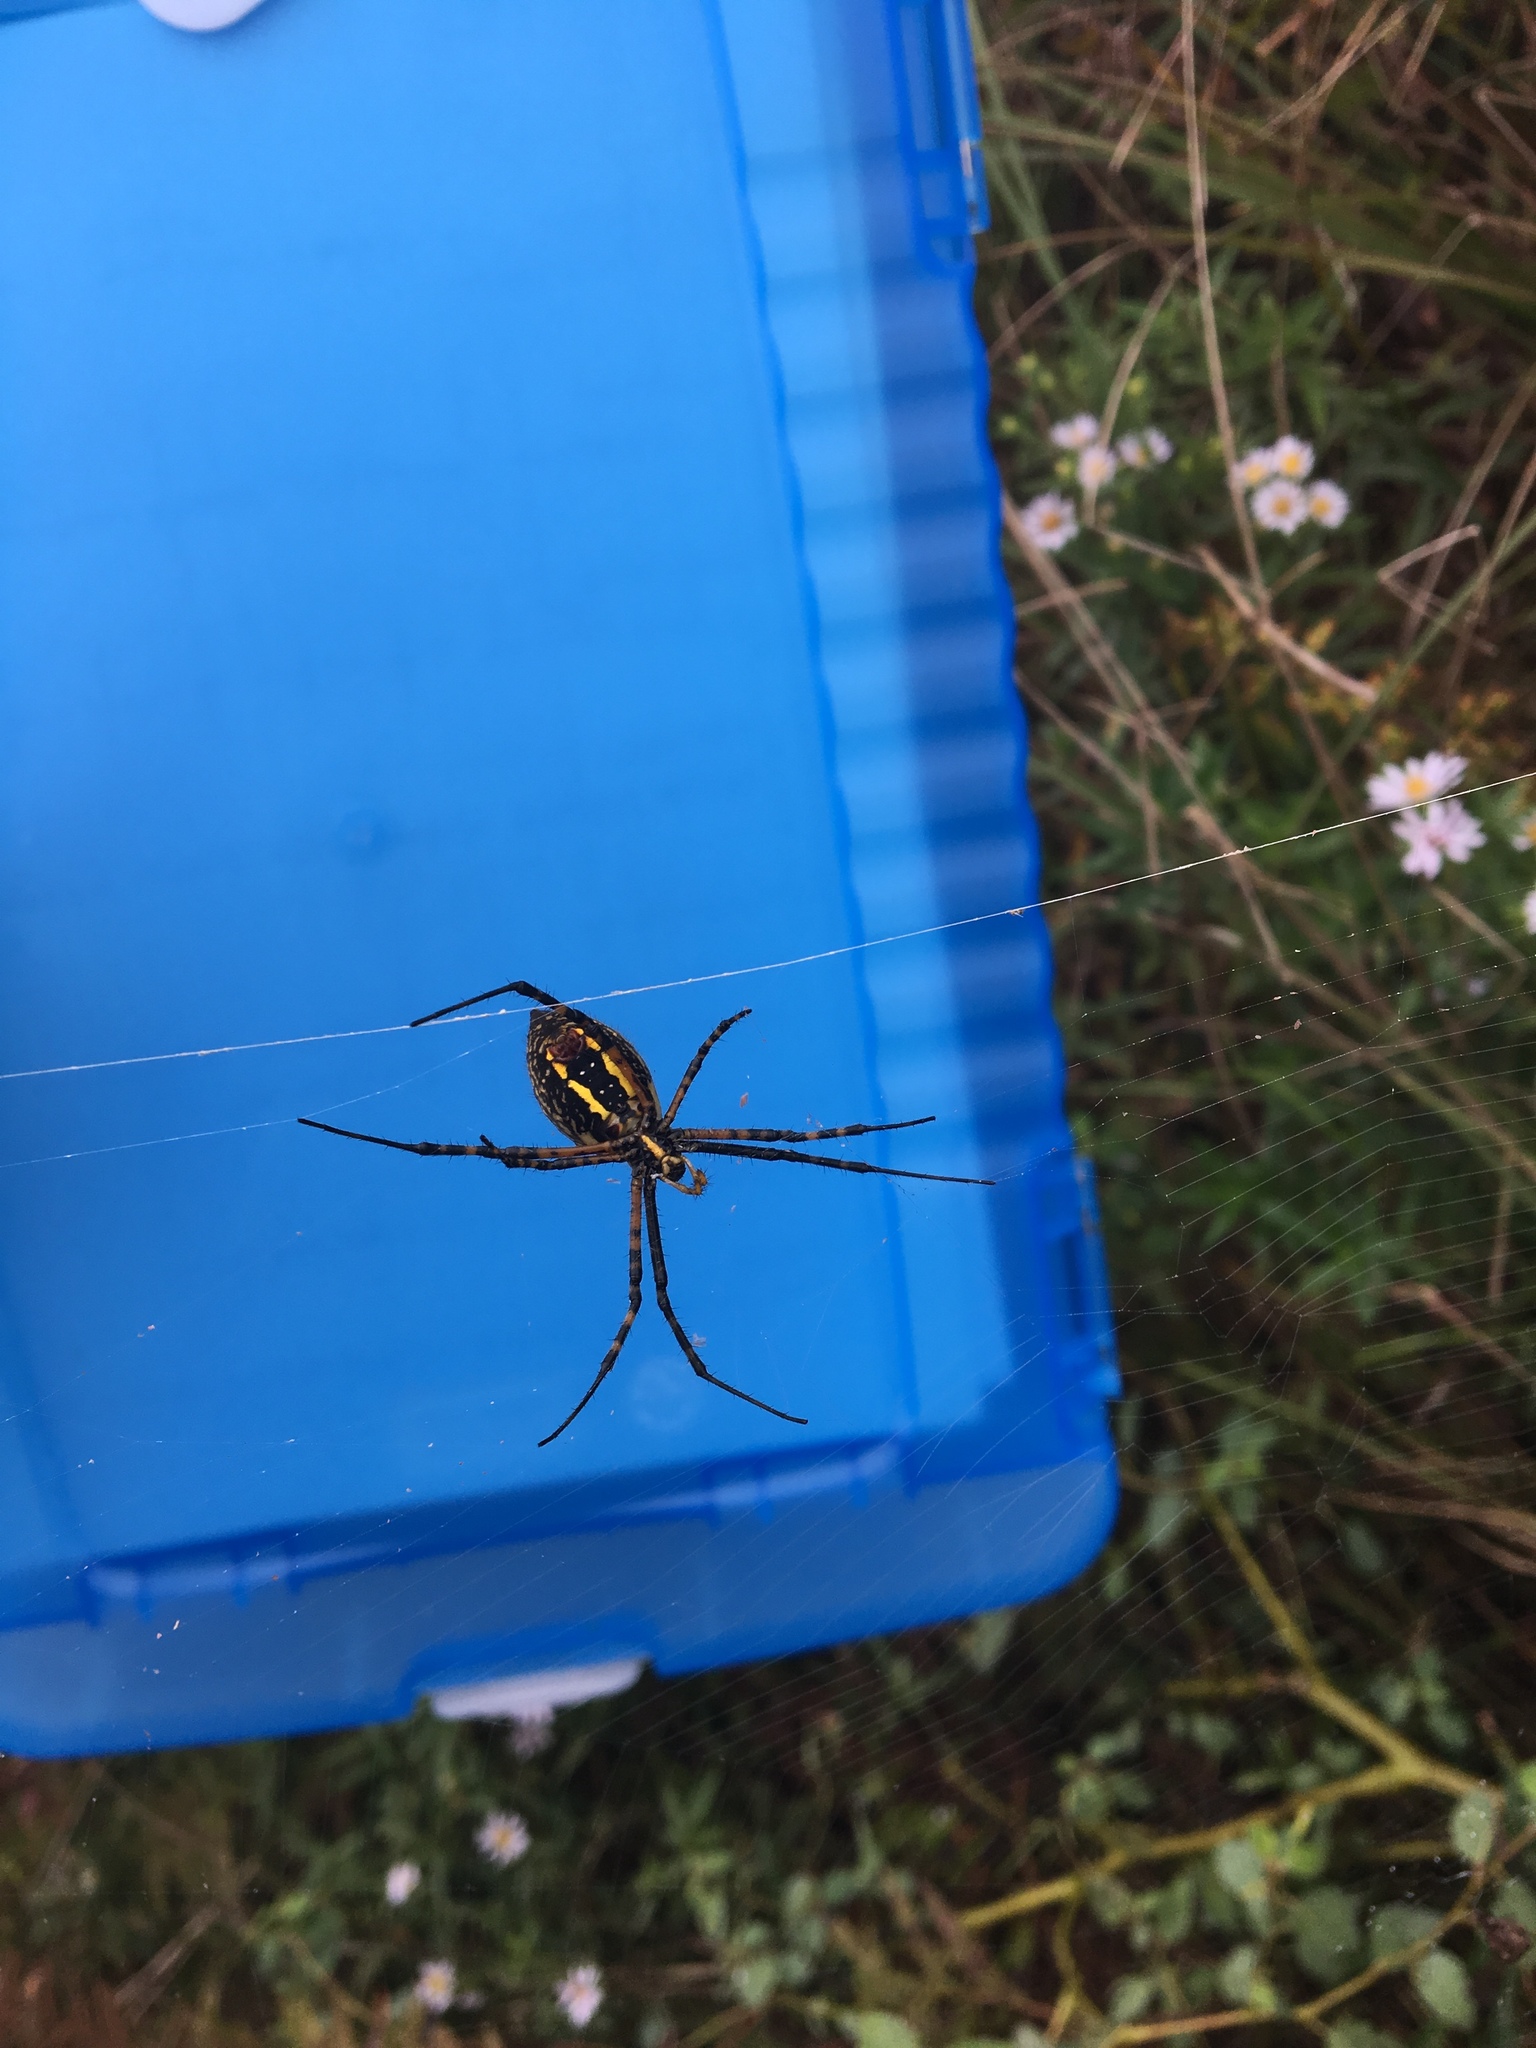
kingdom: Animalia
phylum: Arthropoda
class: Arachnida
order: Araneae
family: Araneidae
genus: Argiope
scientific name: Argiope trifasciata
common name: Banded garden spider
